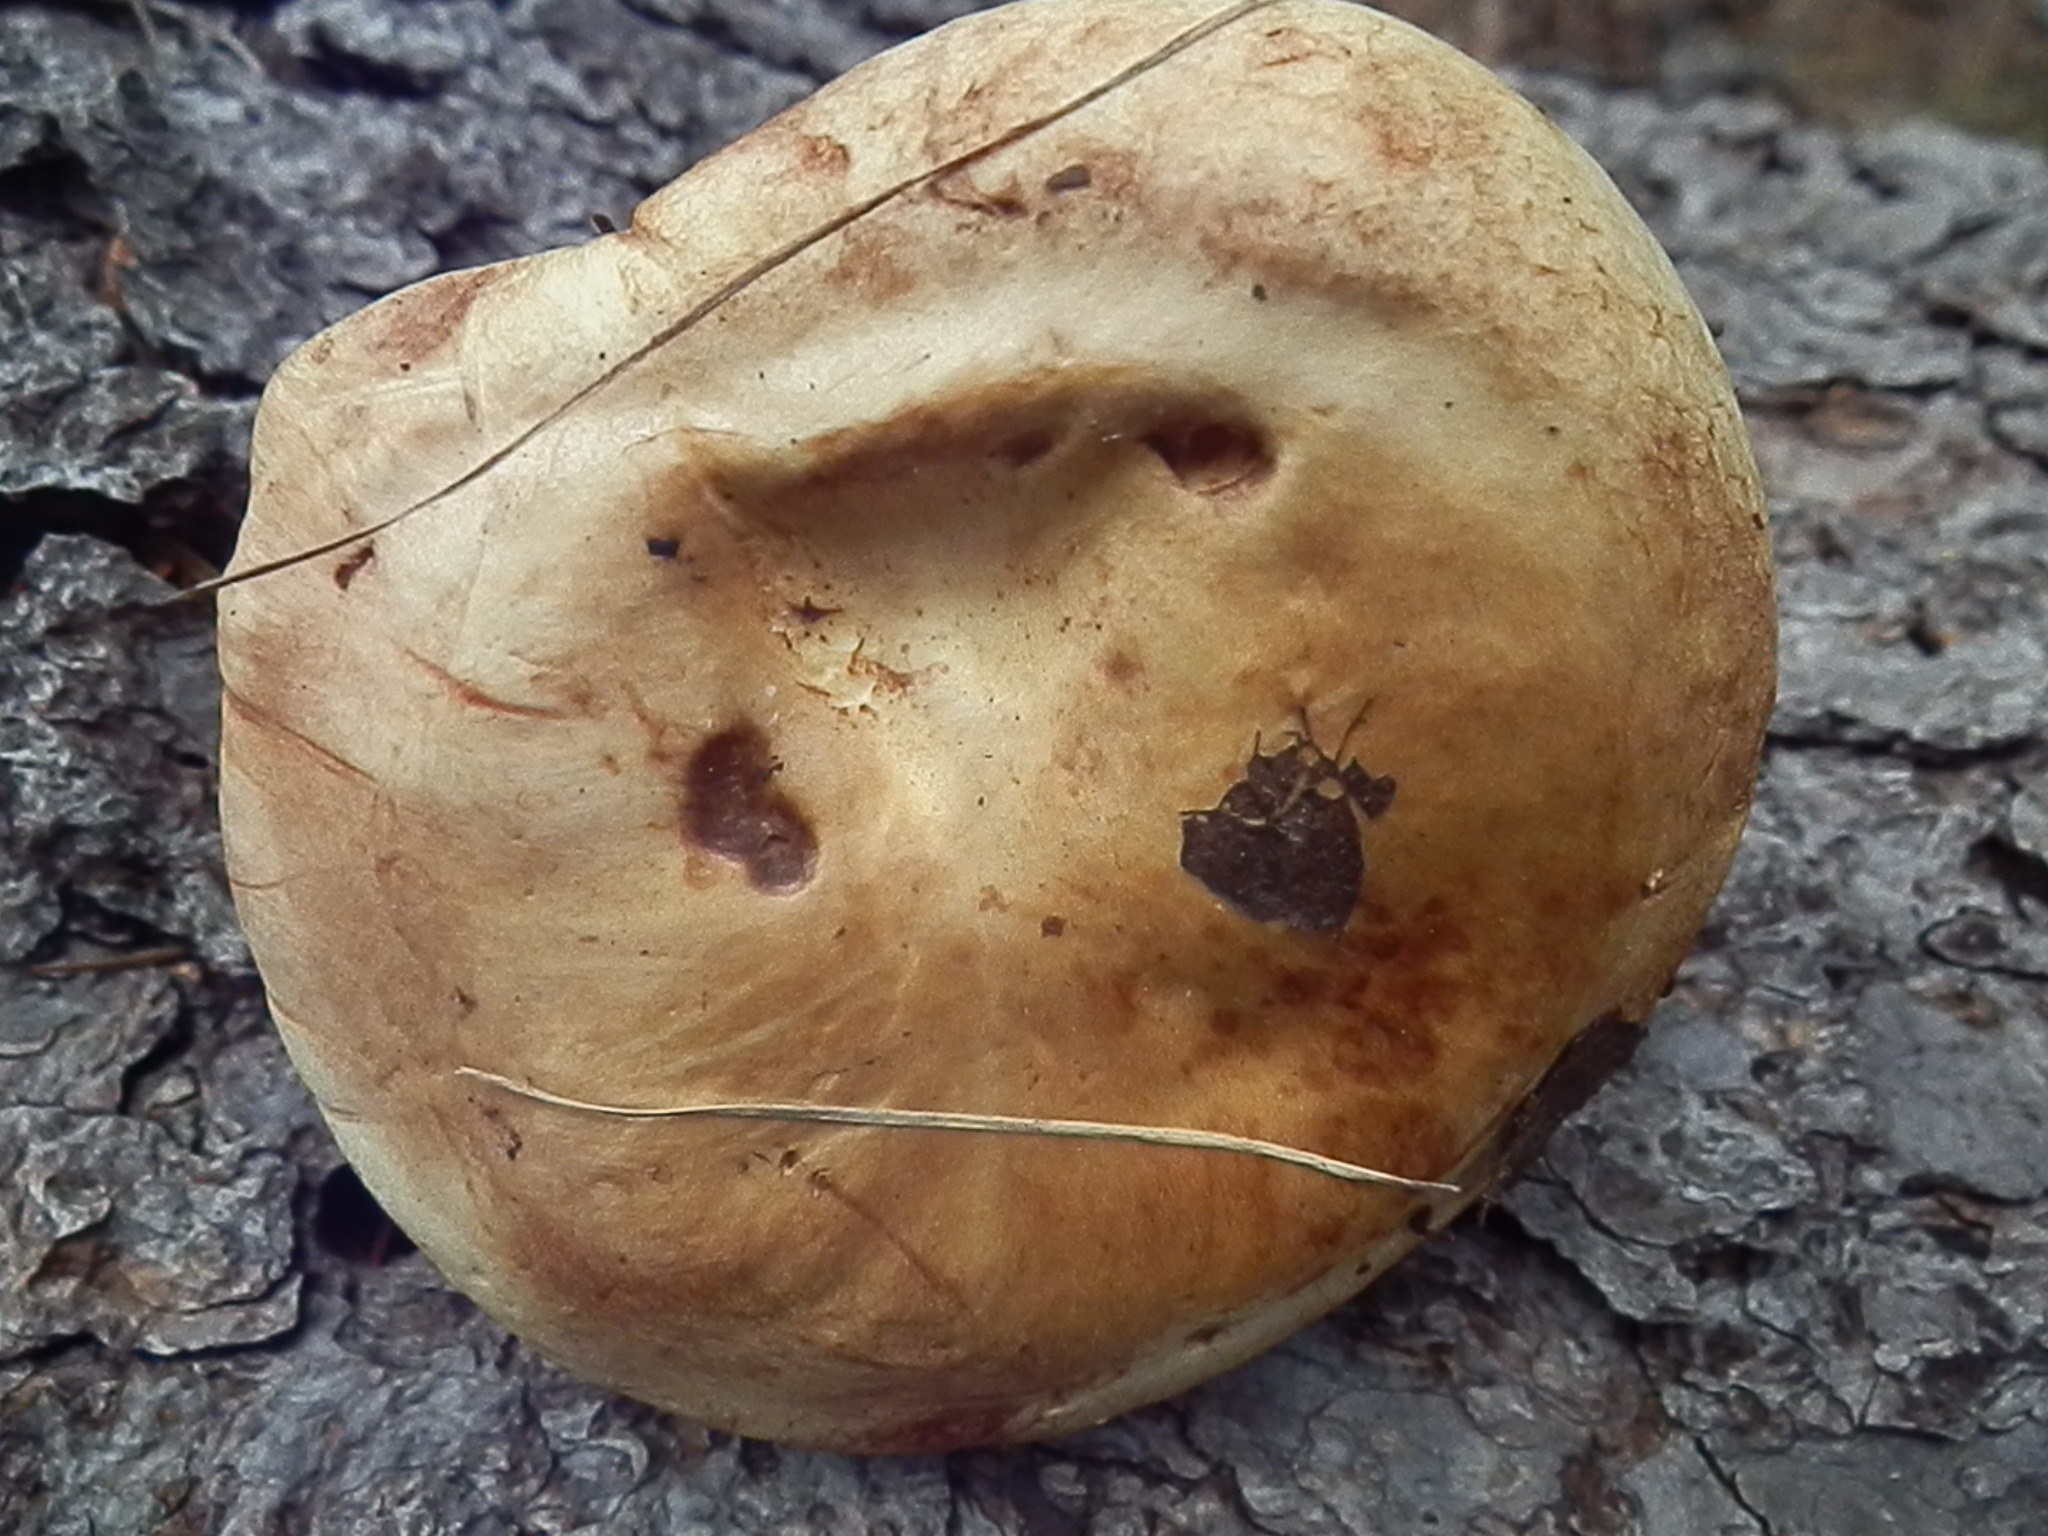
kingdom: Fungi
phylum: Basidiomycota
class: Agaricomycetes
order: Boletales
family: Paxillaceae
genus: Paxillus
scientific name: Paxillus obscurisporus
